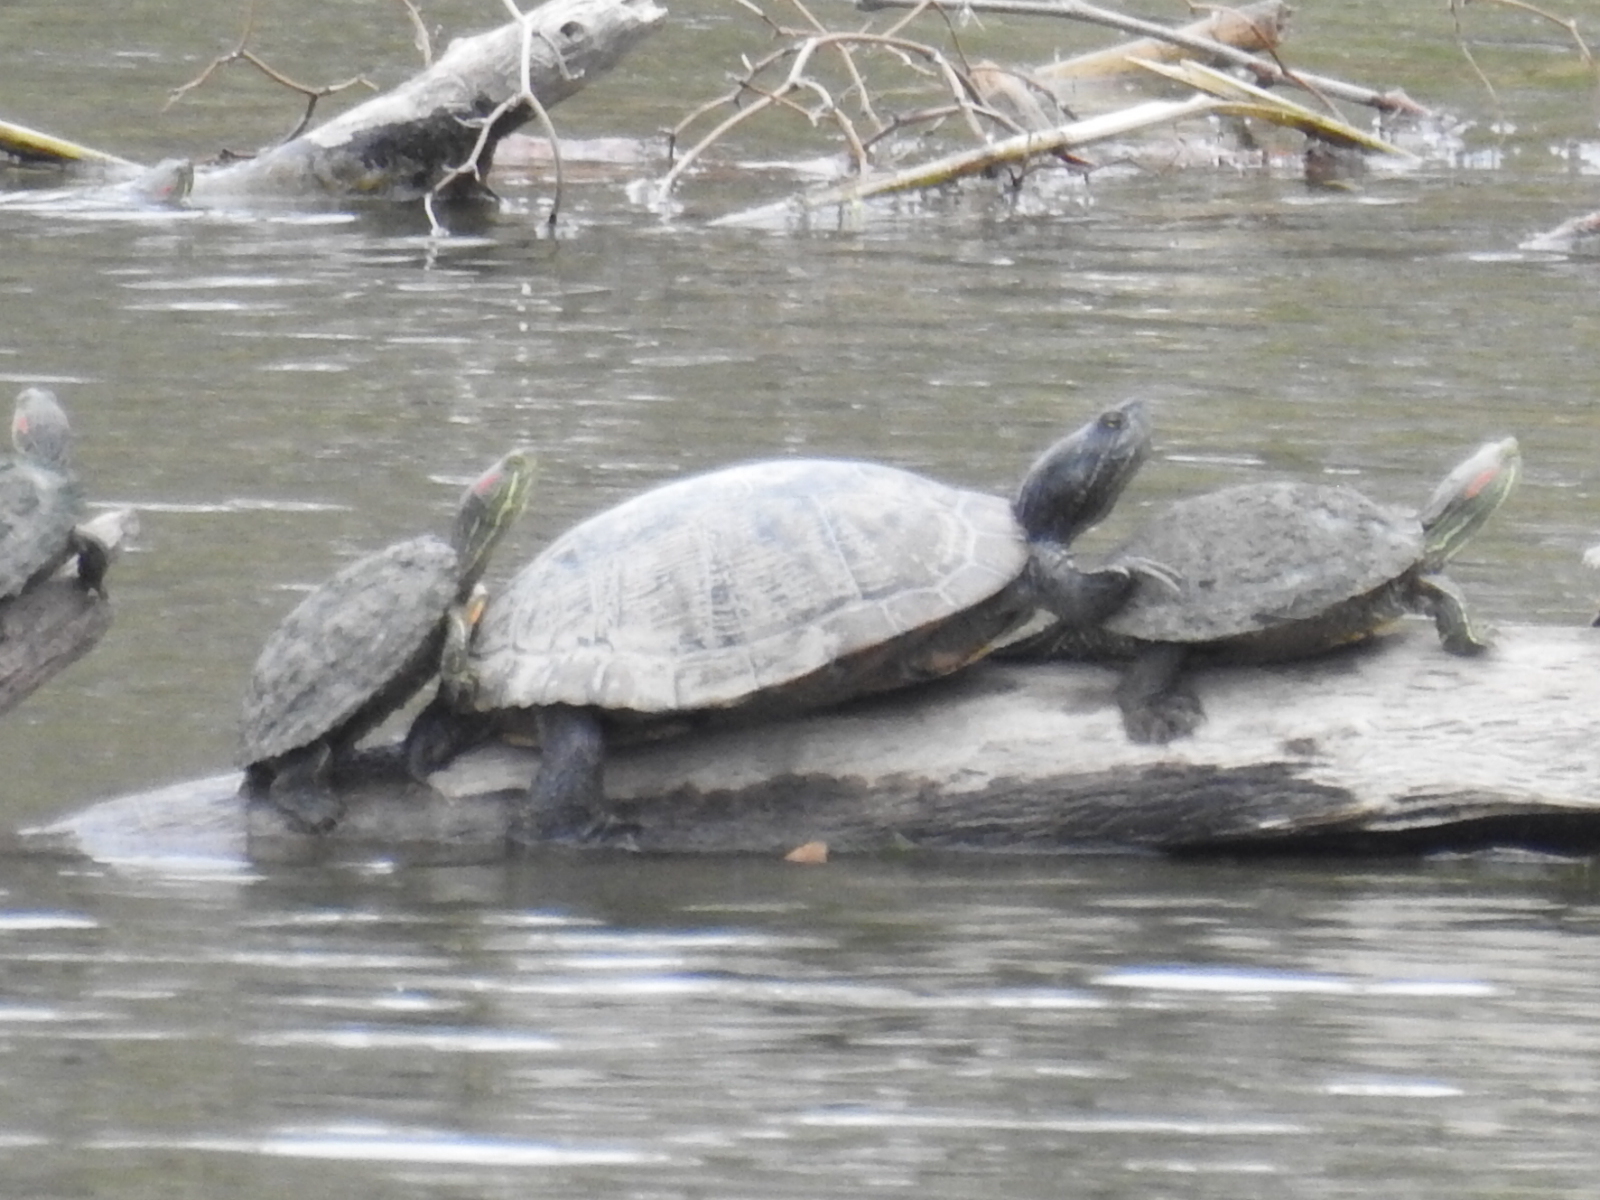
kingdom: Animalia
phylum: Chordata
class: Testudines
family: Emydidae
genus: Trachemys
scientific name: Trachemys scripta
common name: Slider
